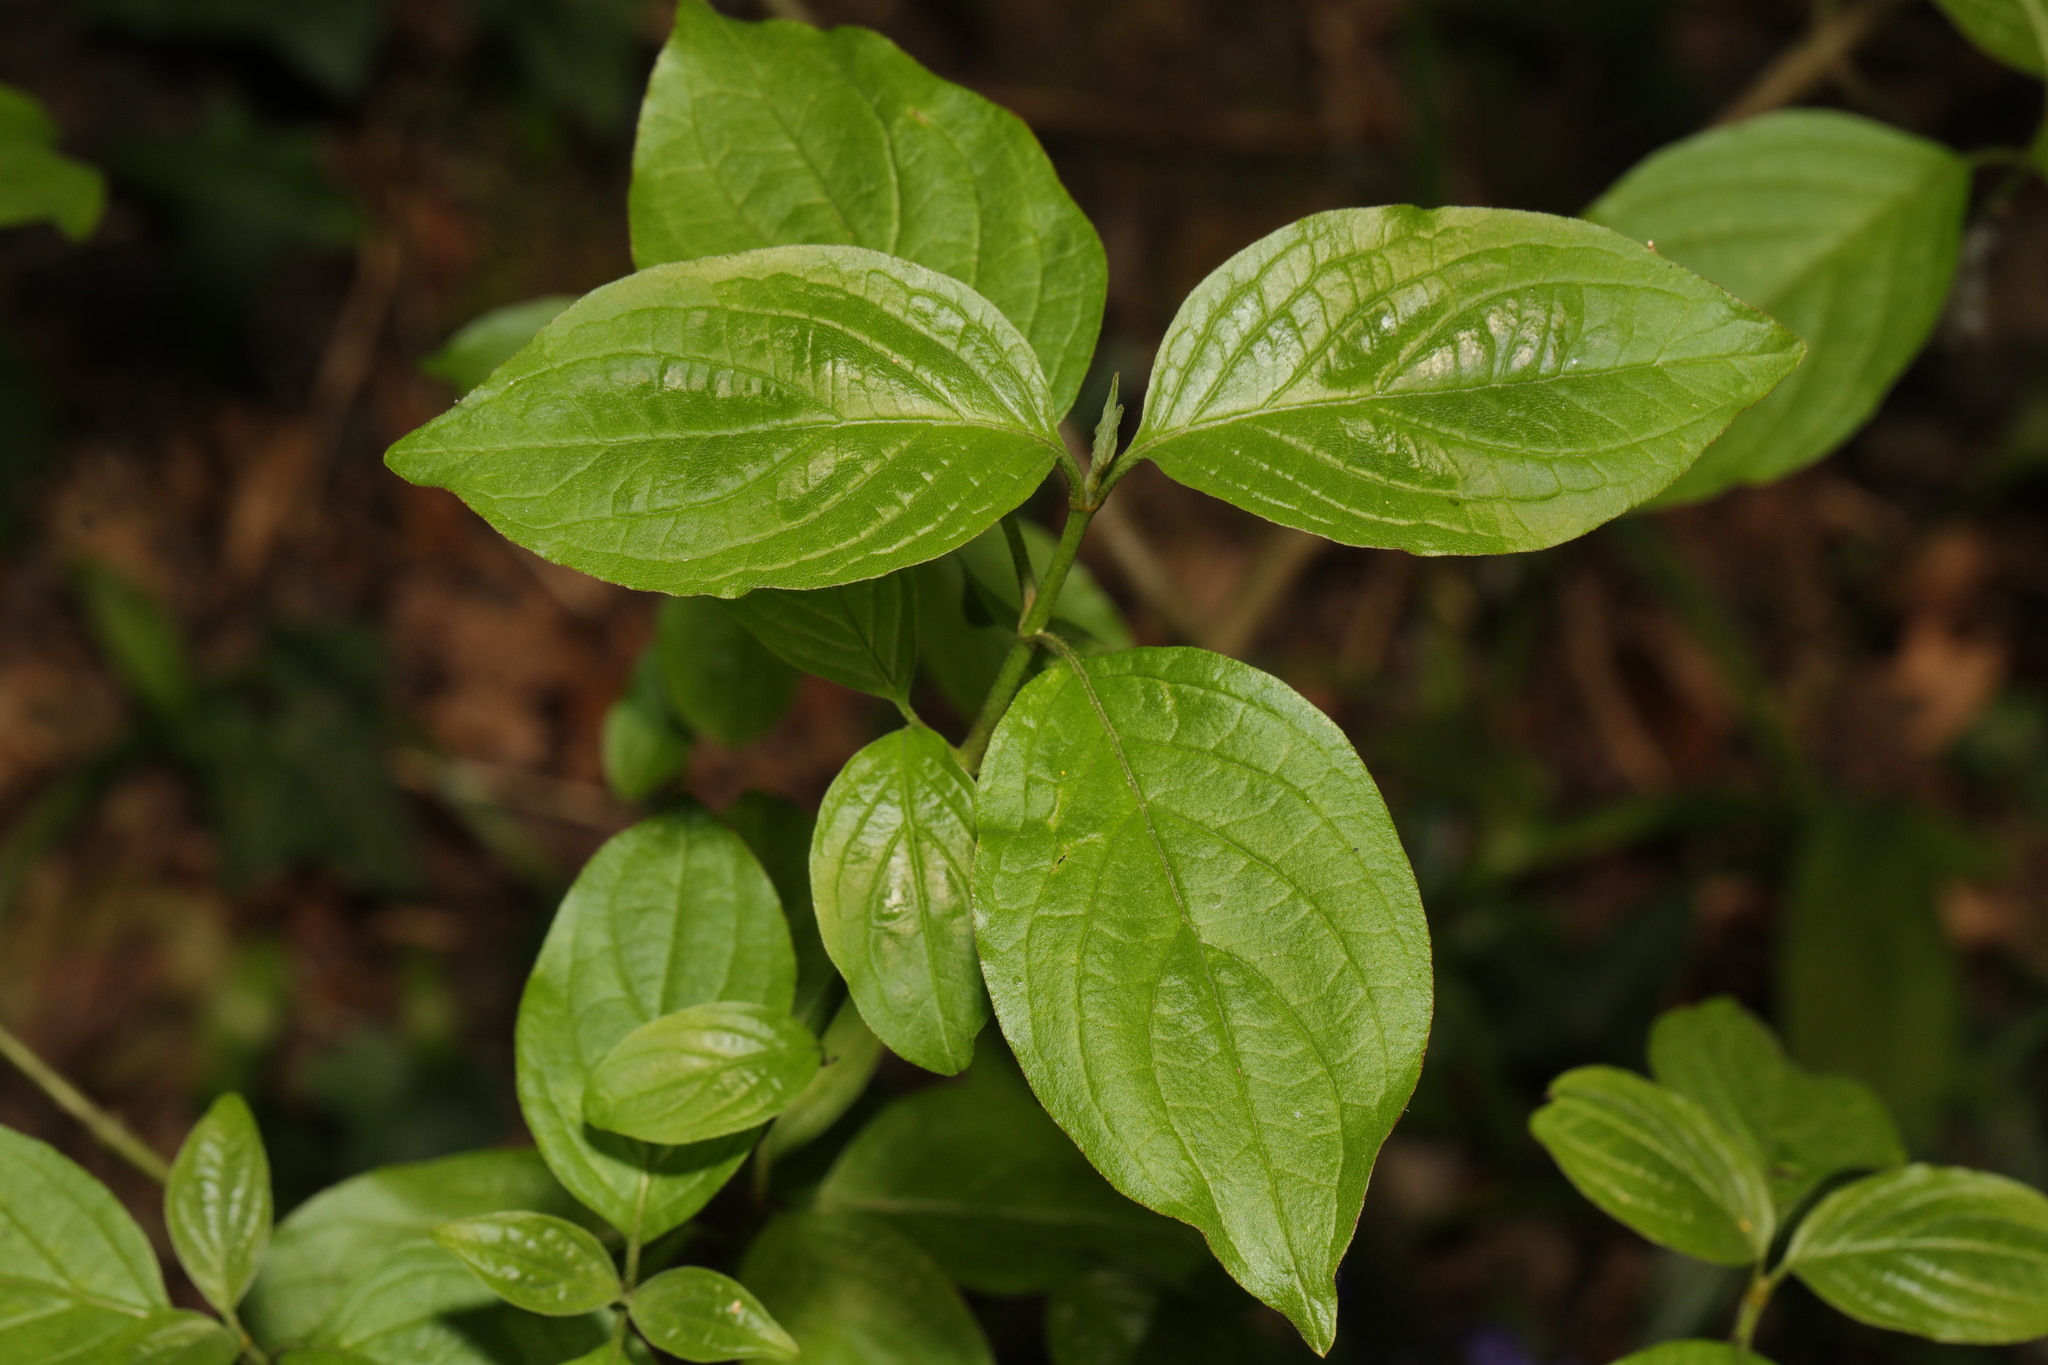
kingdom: Plantae
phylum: Tracheophyta
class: Magnoliopsida
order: Cornales
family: Cornaceae
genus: Cornus
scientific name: Cornus sanguinea
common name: Dogwood
